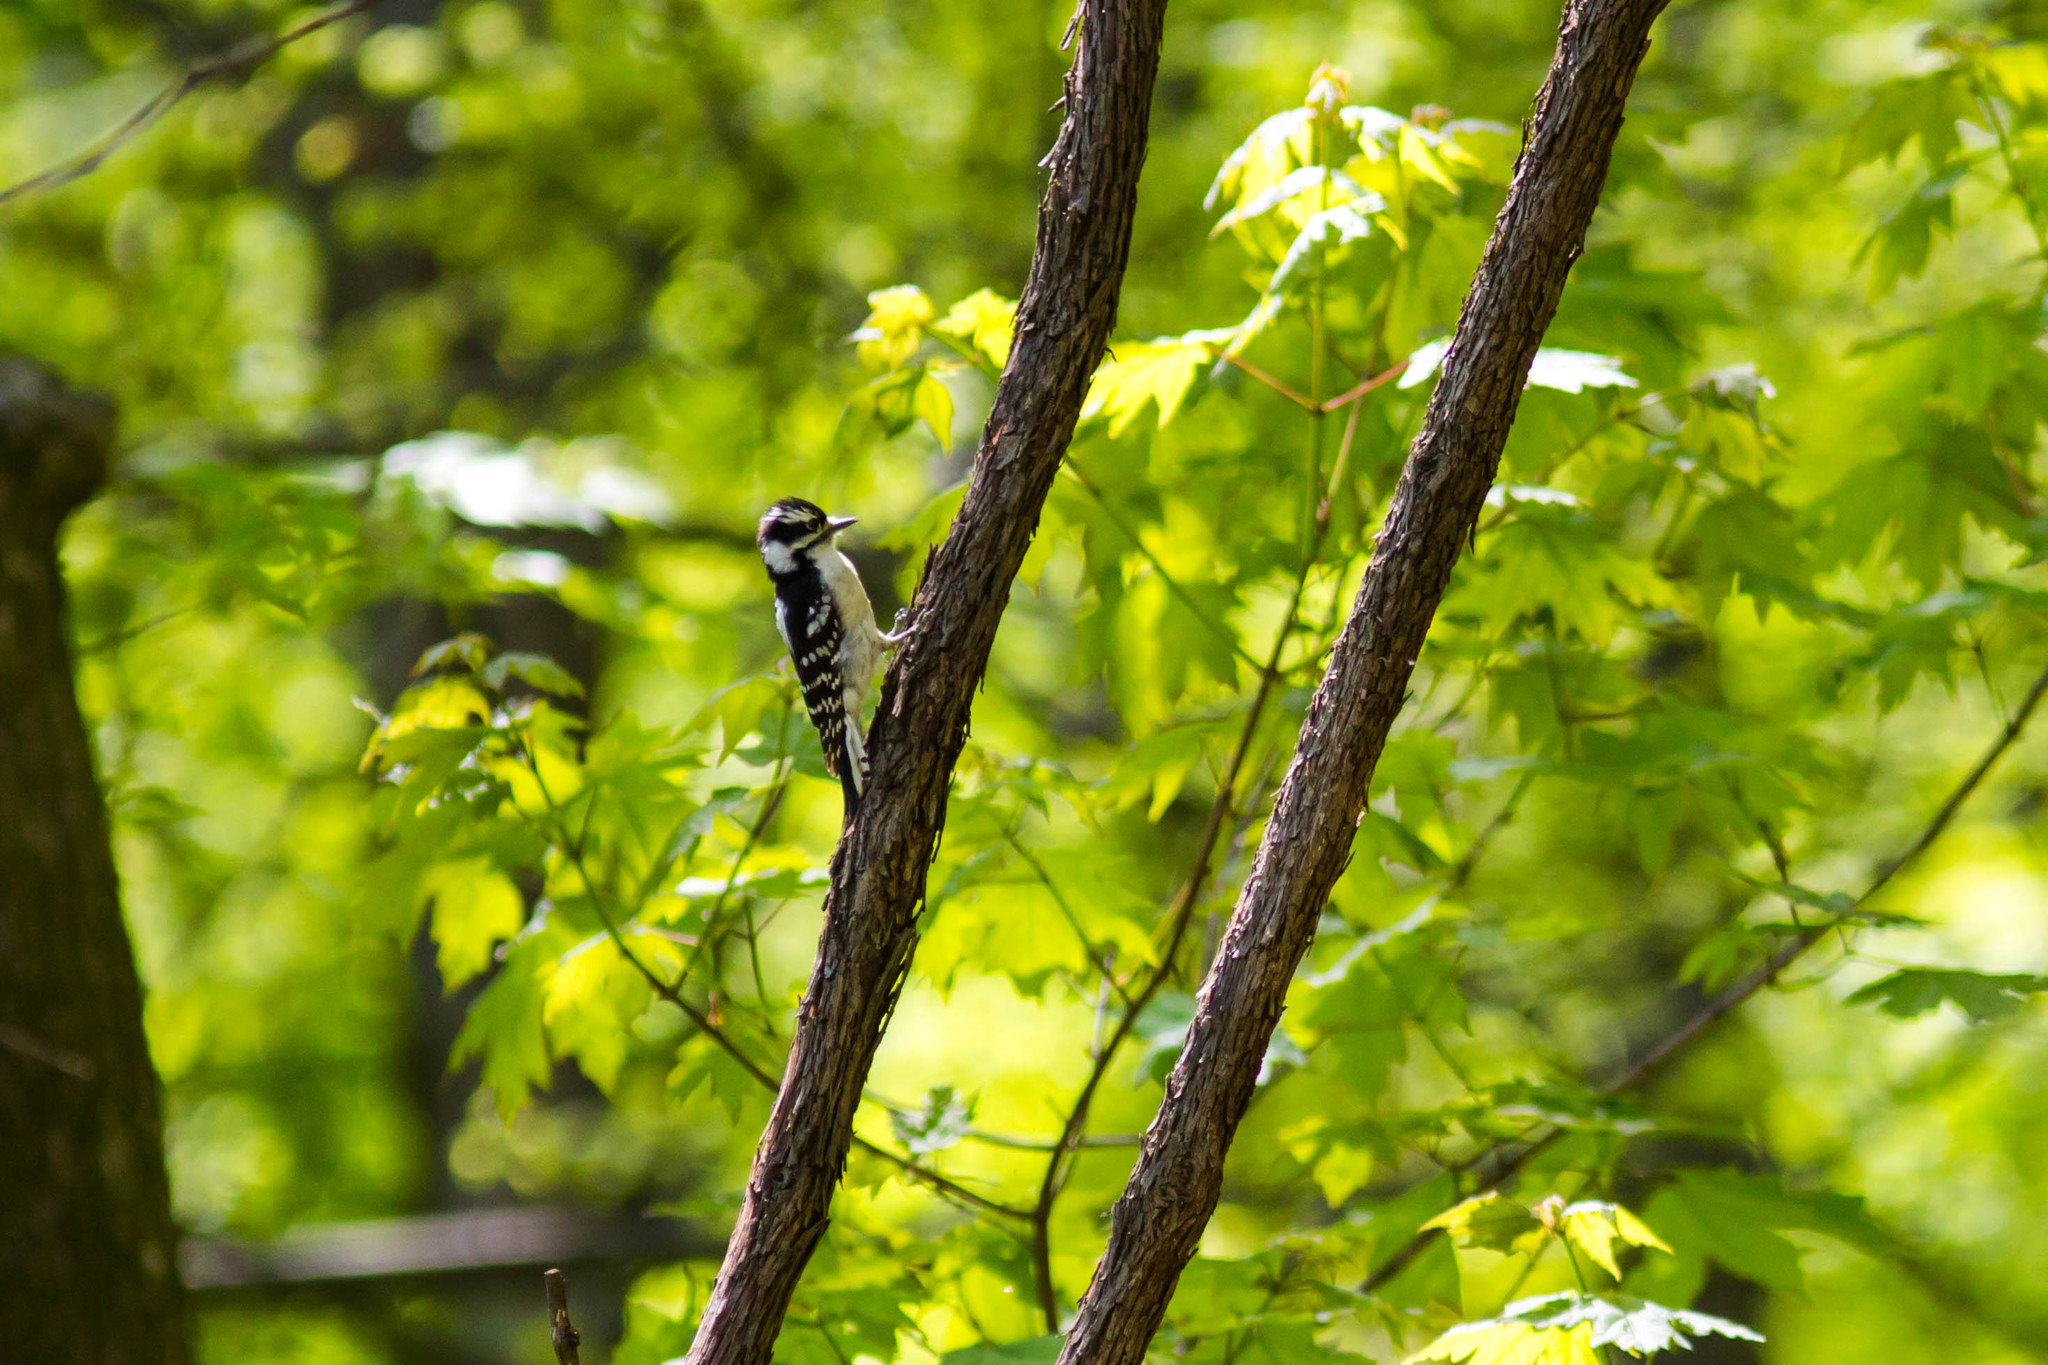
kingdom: Animalia
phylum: Chordata
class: Aves
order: Piciformes
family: Picidae
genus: Dryobates
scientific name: Dryobates pubescens
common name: Downy woodpecker
